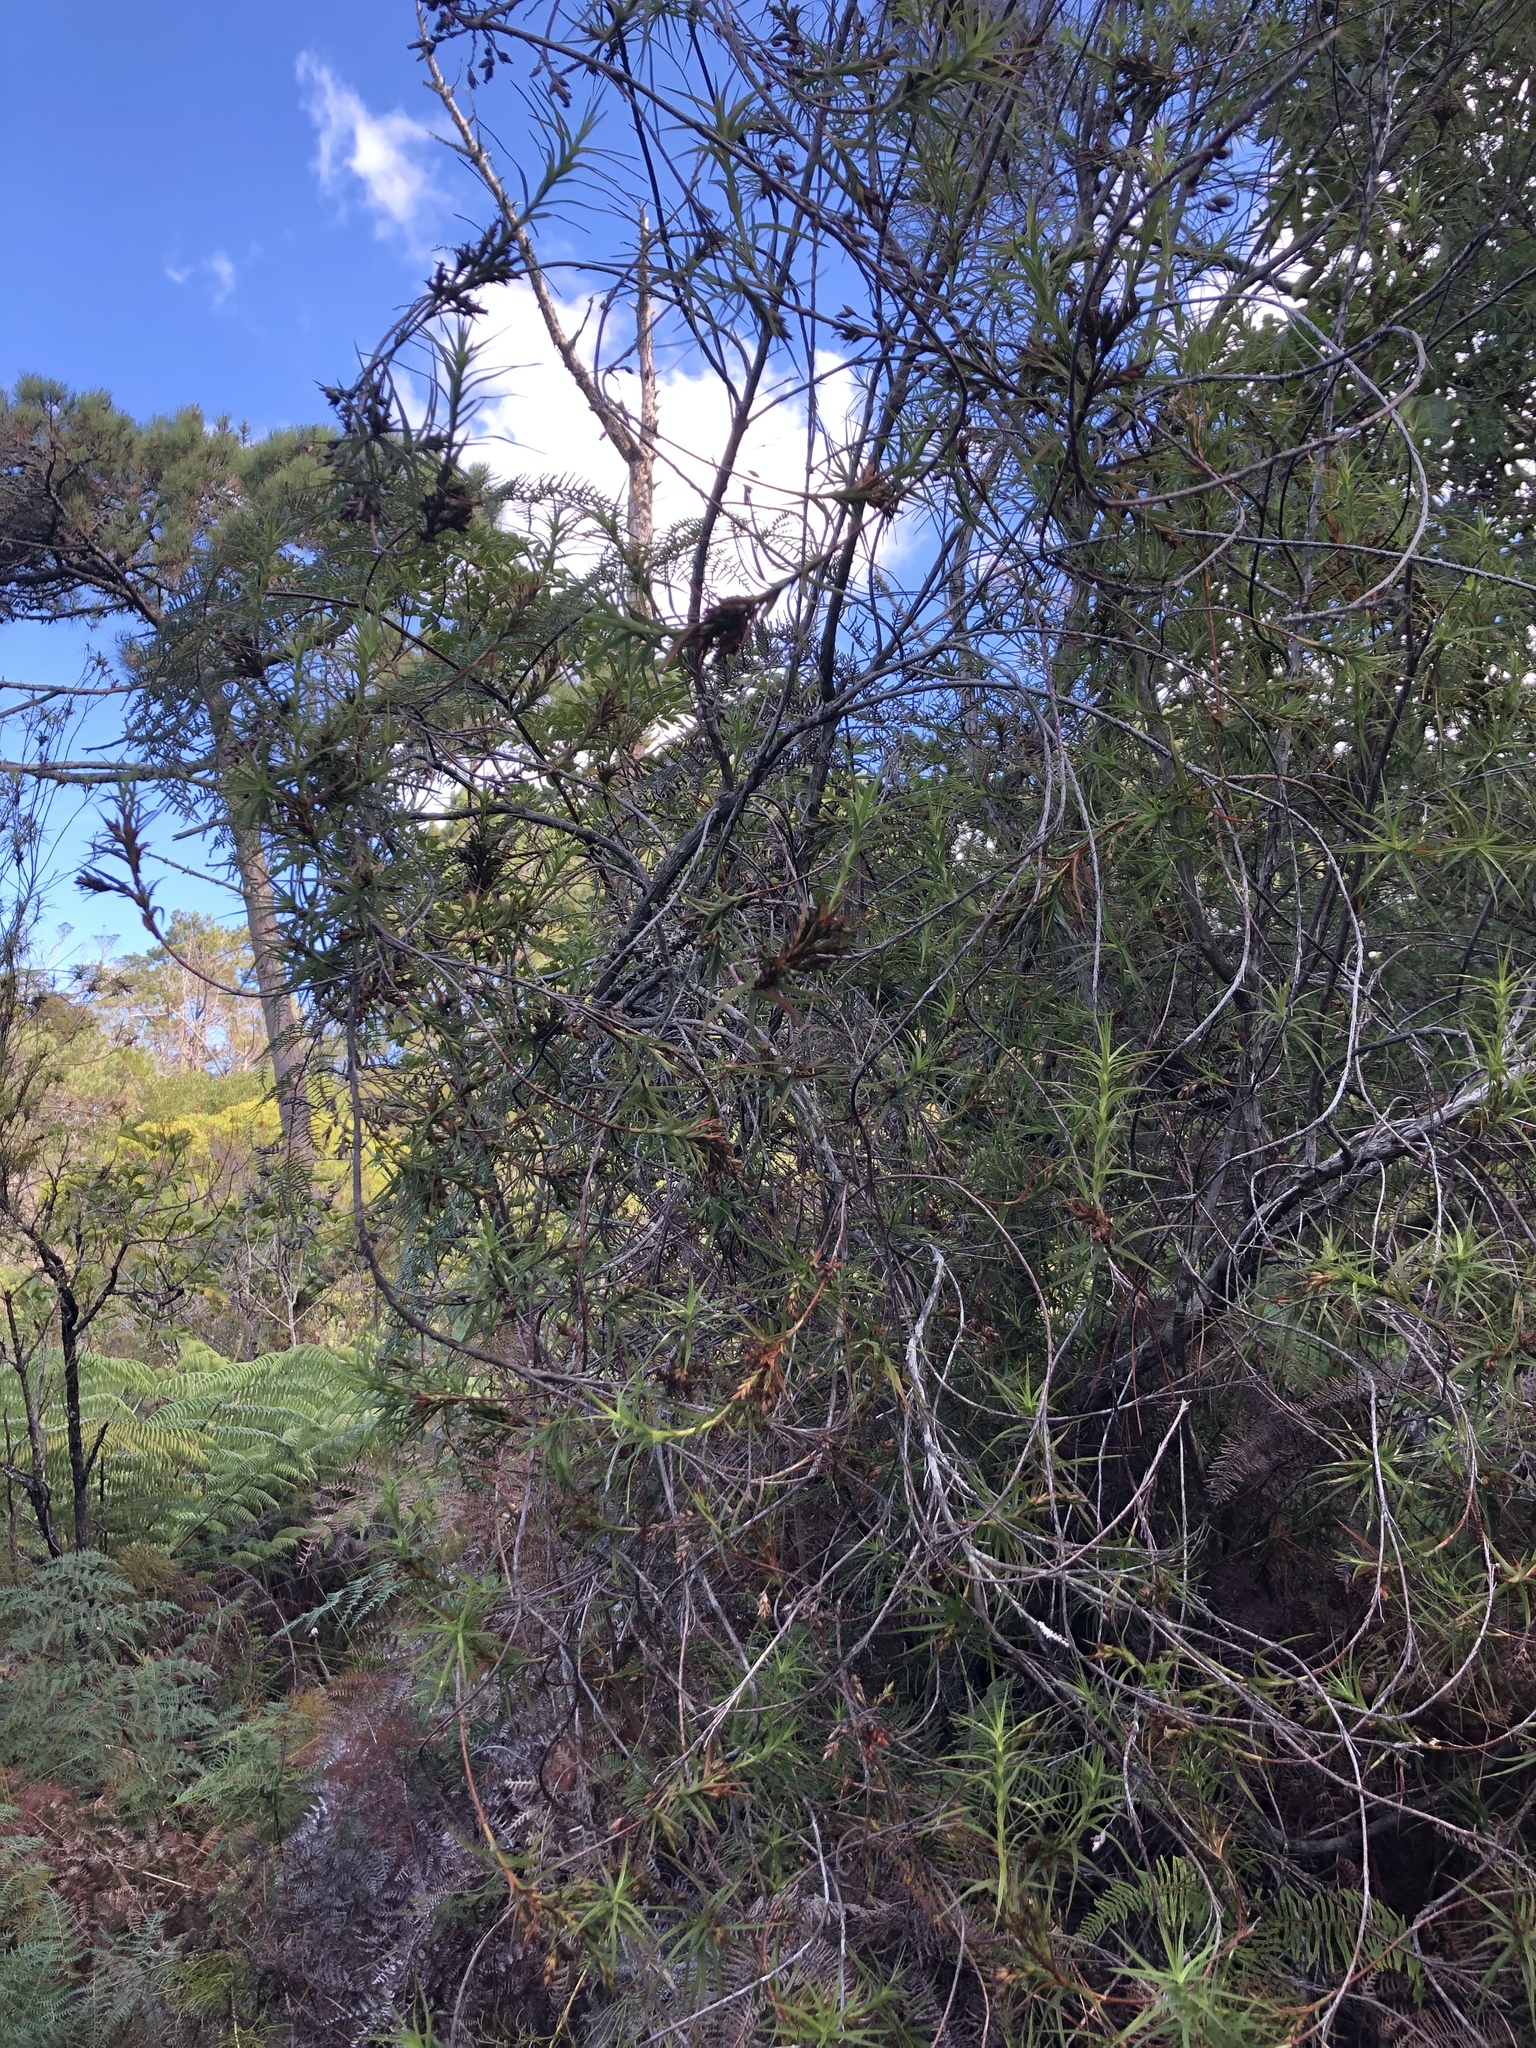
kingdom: Plantae
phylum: Tracheophyta
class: Magnoliopsida
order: Ericales
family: Ericaceae
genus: Dracophyllum
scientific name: Dracophyllum sinclairii
